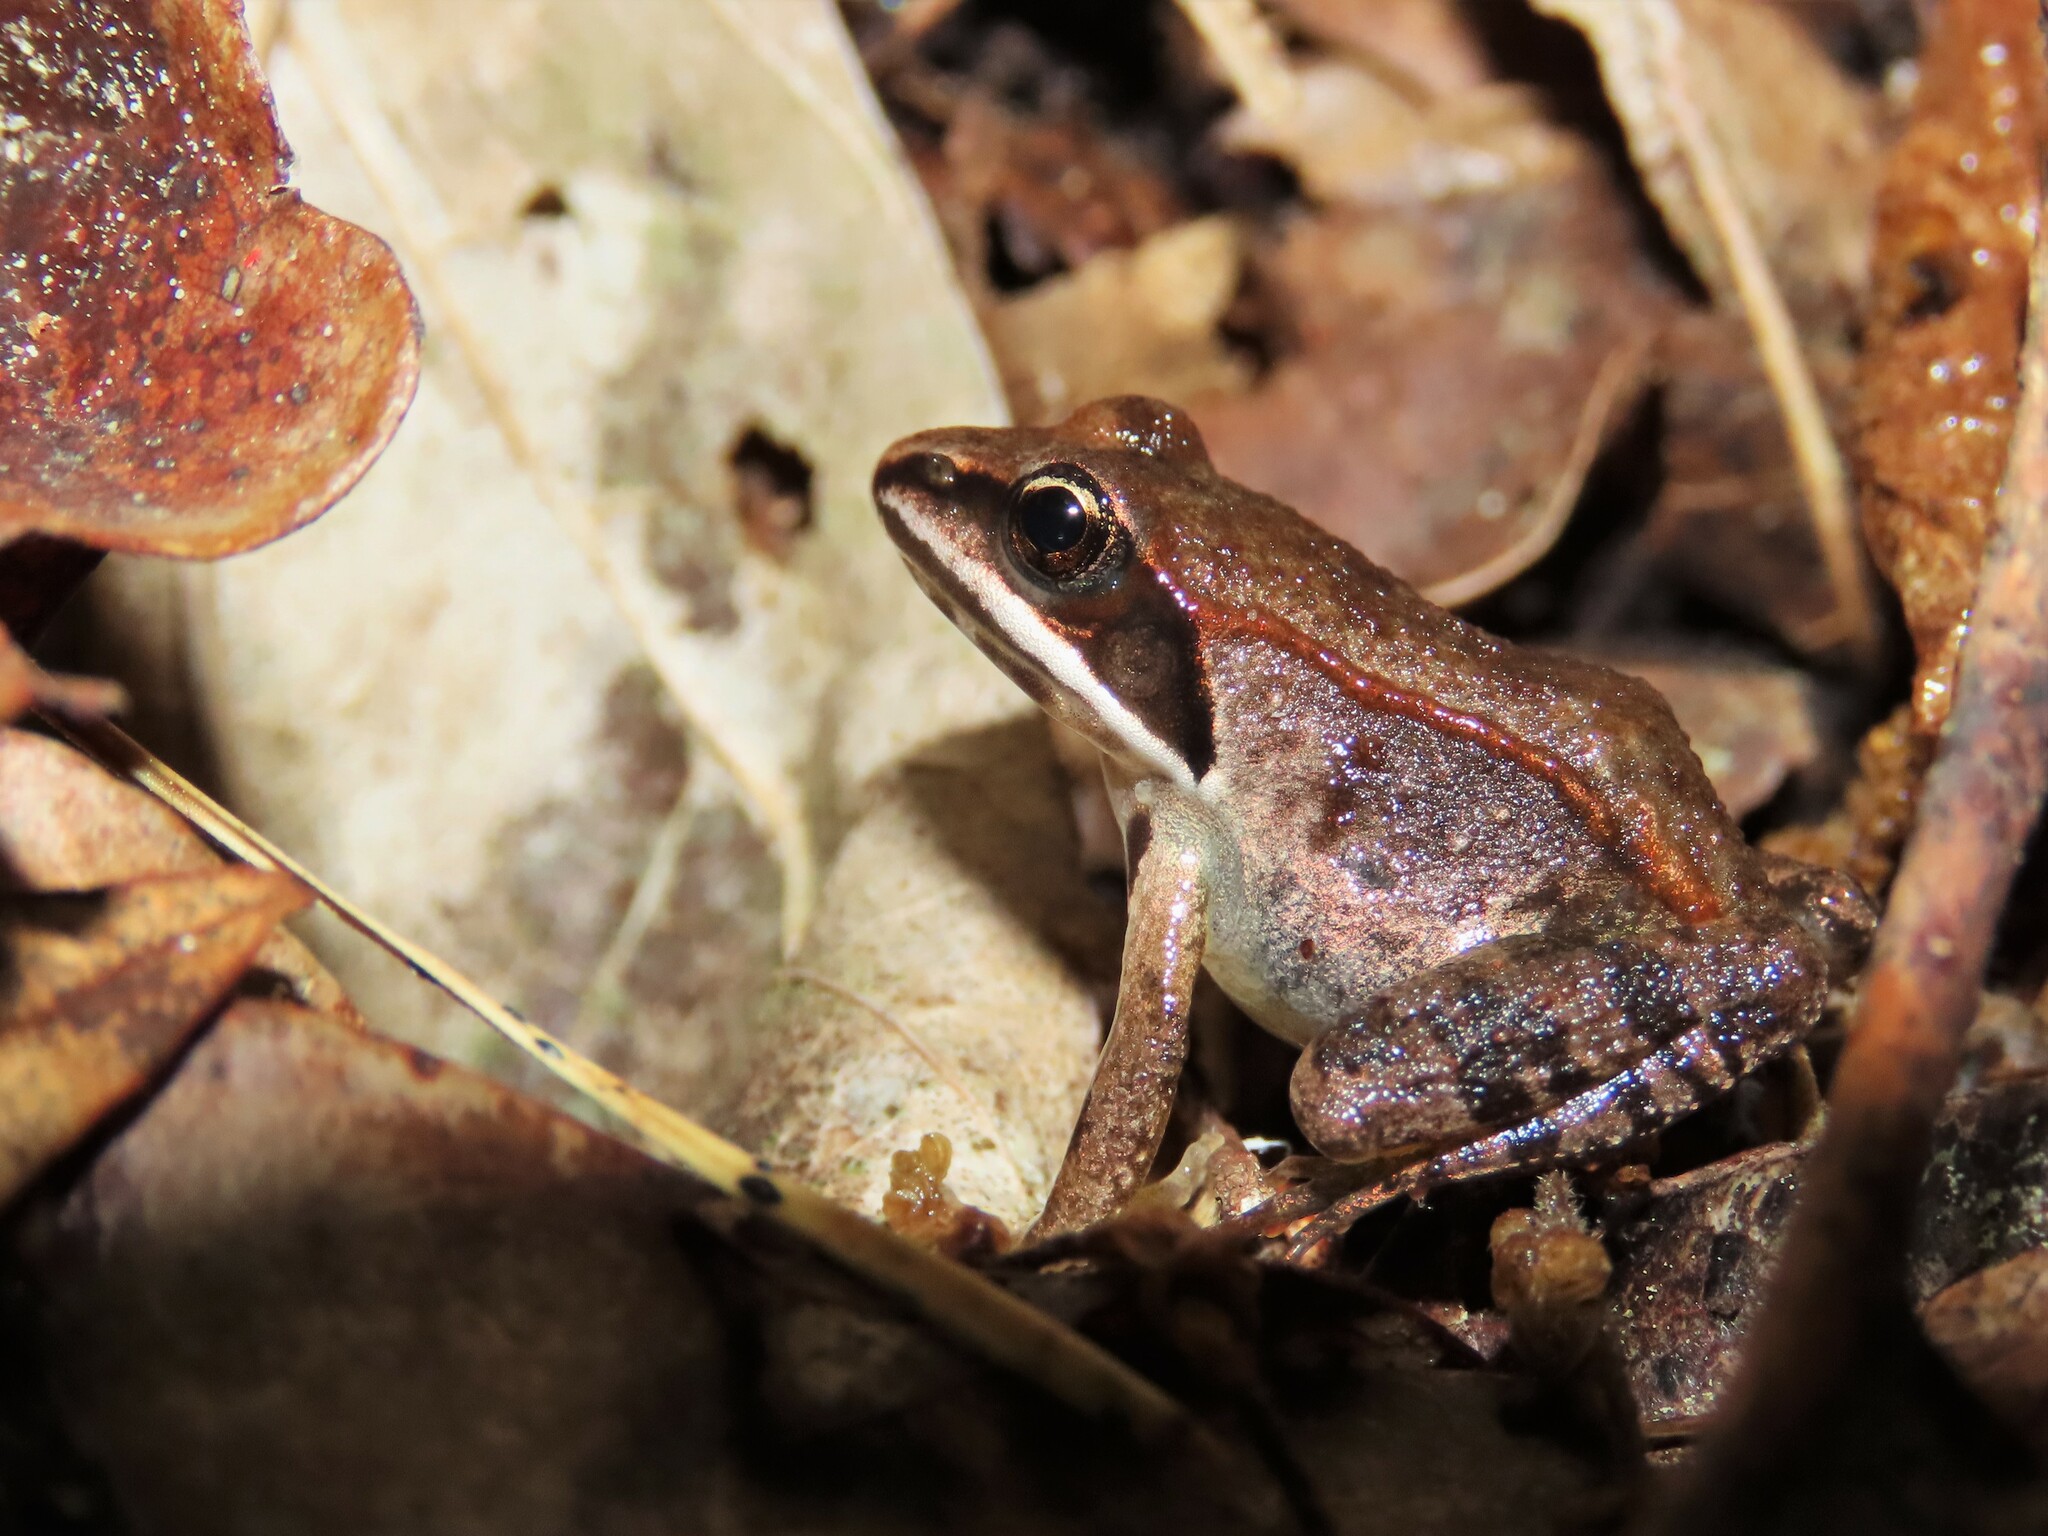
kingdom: Animalia
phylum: Chordata
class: Amphibia
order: Anura
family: Ranidae
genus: Lithobates
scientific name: Lithobates sylvaticus
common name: Wood frog
